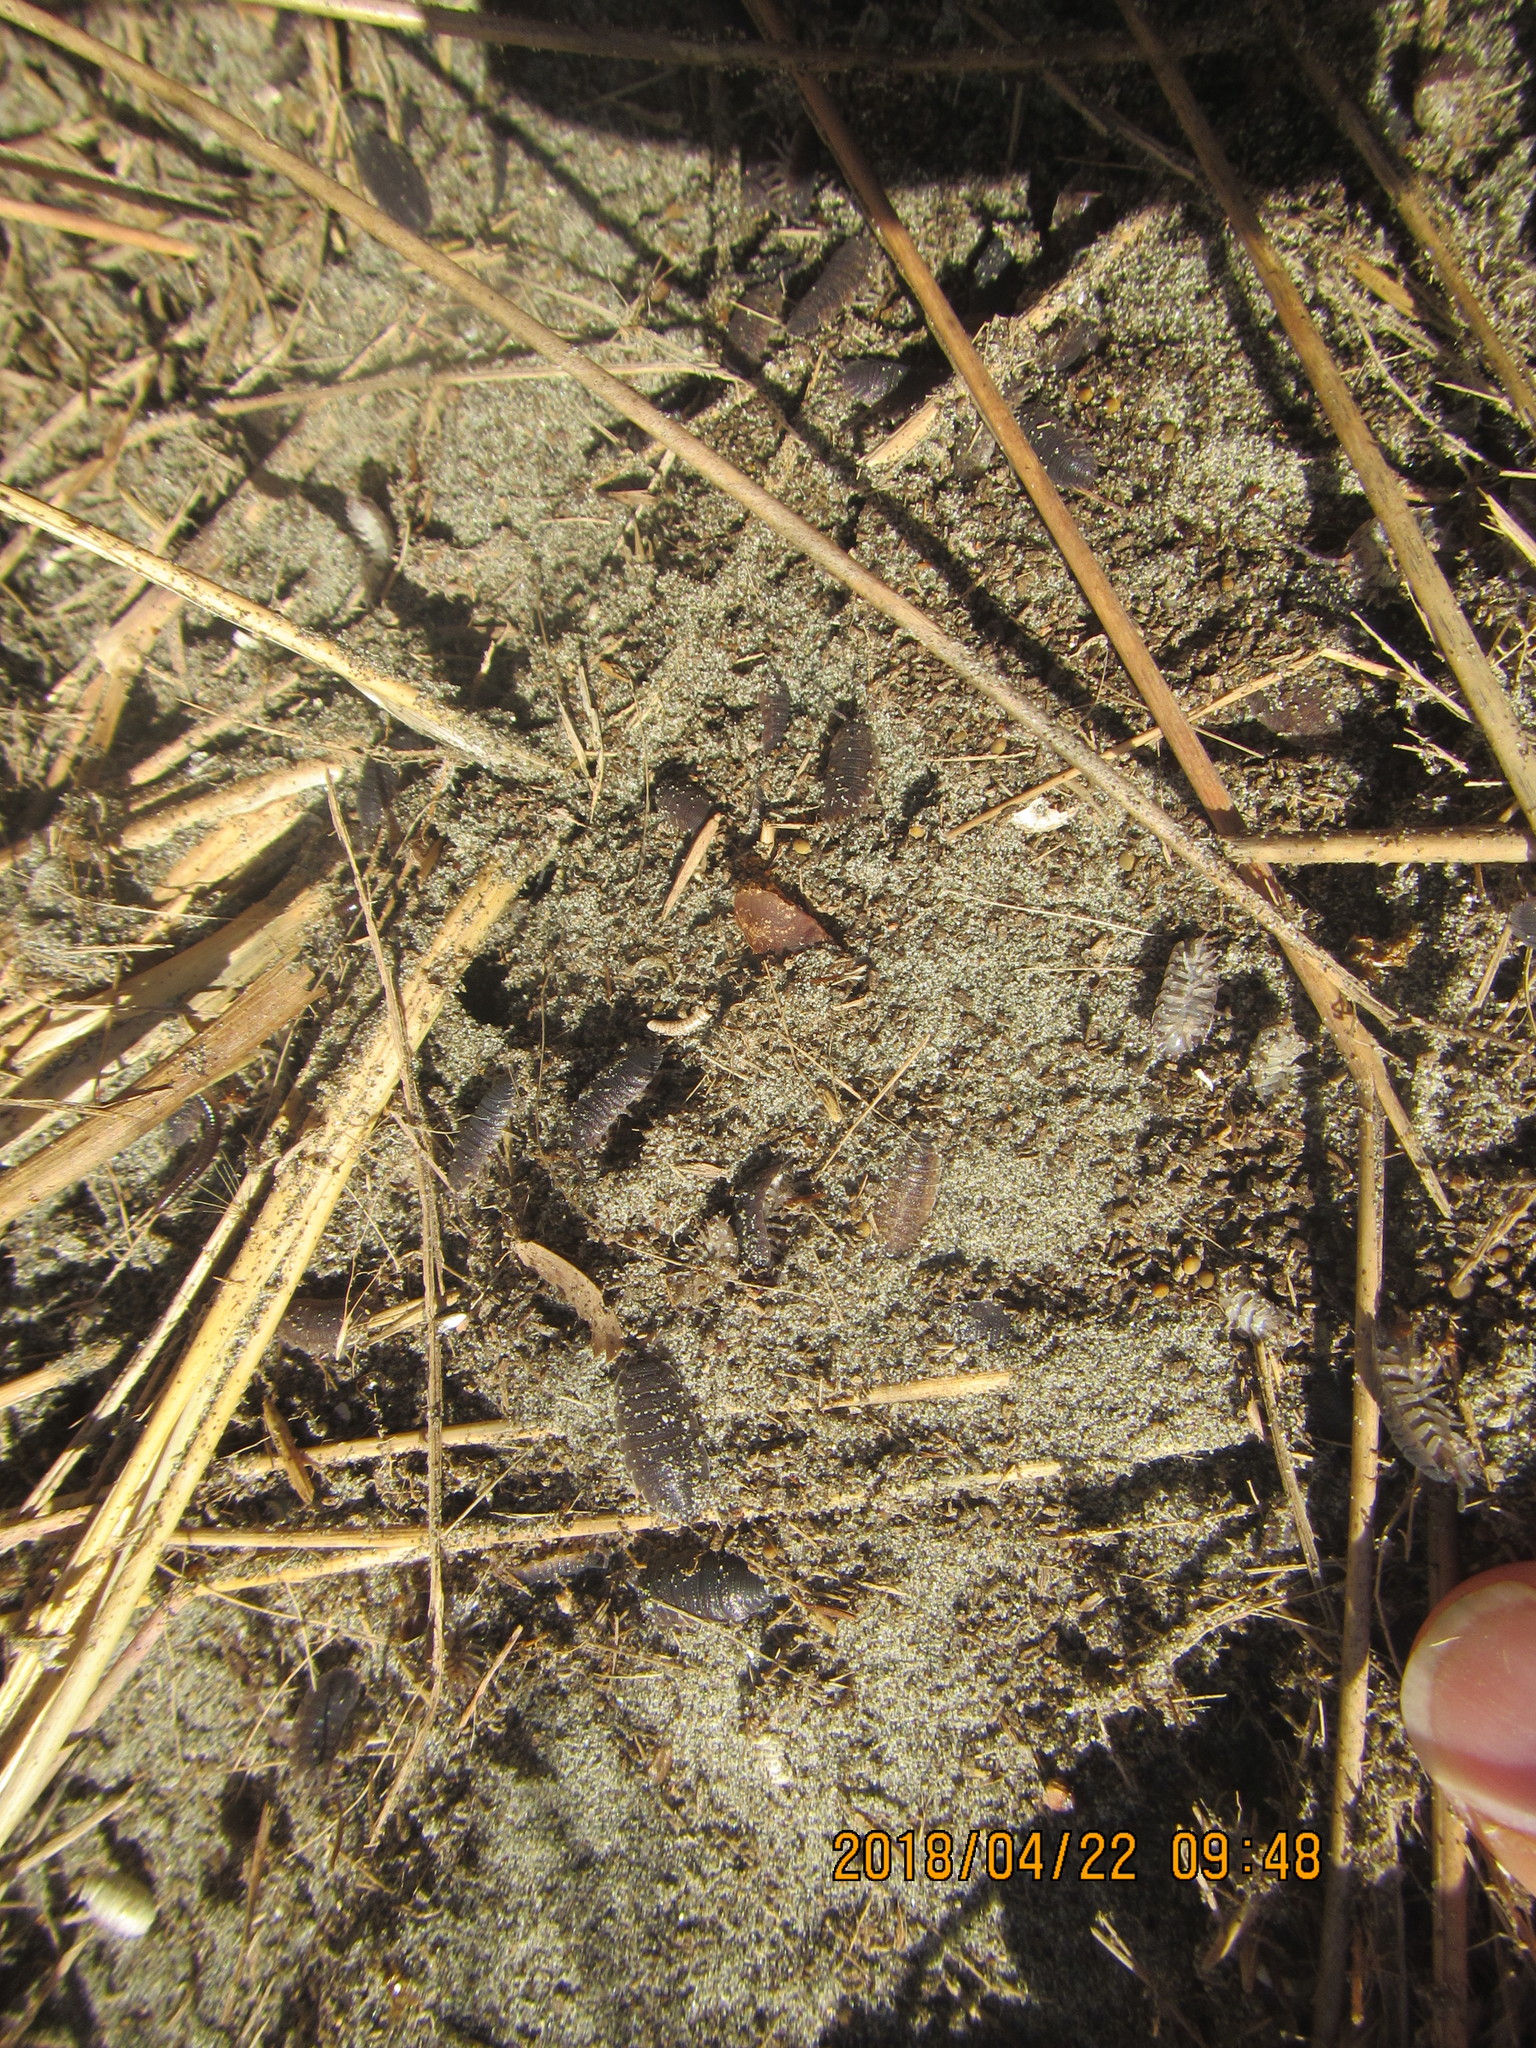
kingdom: Animalia
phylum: Arthropoda
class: Malacostraca
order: Isopoda
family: Porcellionidae
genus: Porcellio
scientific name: Porcellio scaber
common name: Common rough woodlouse
